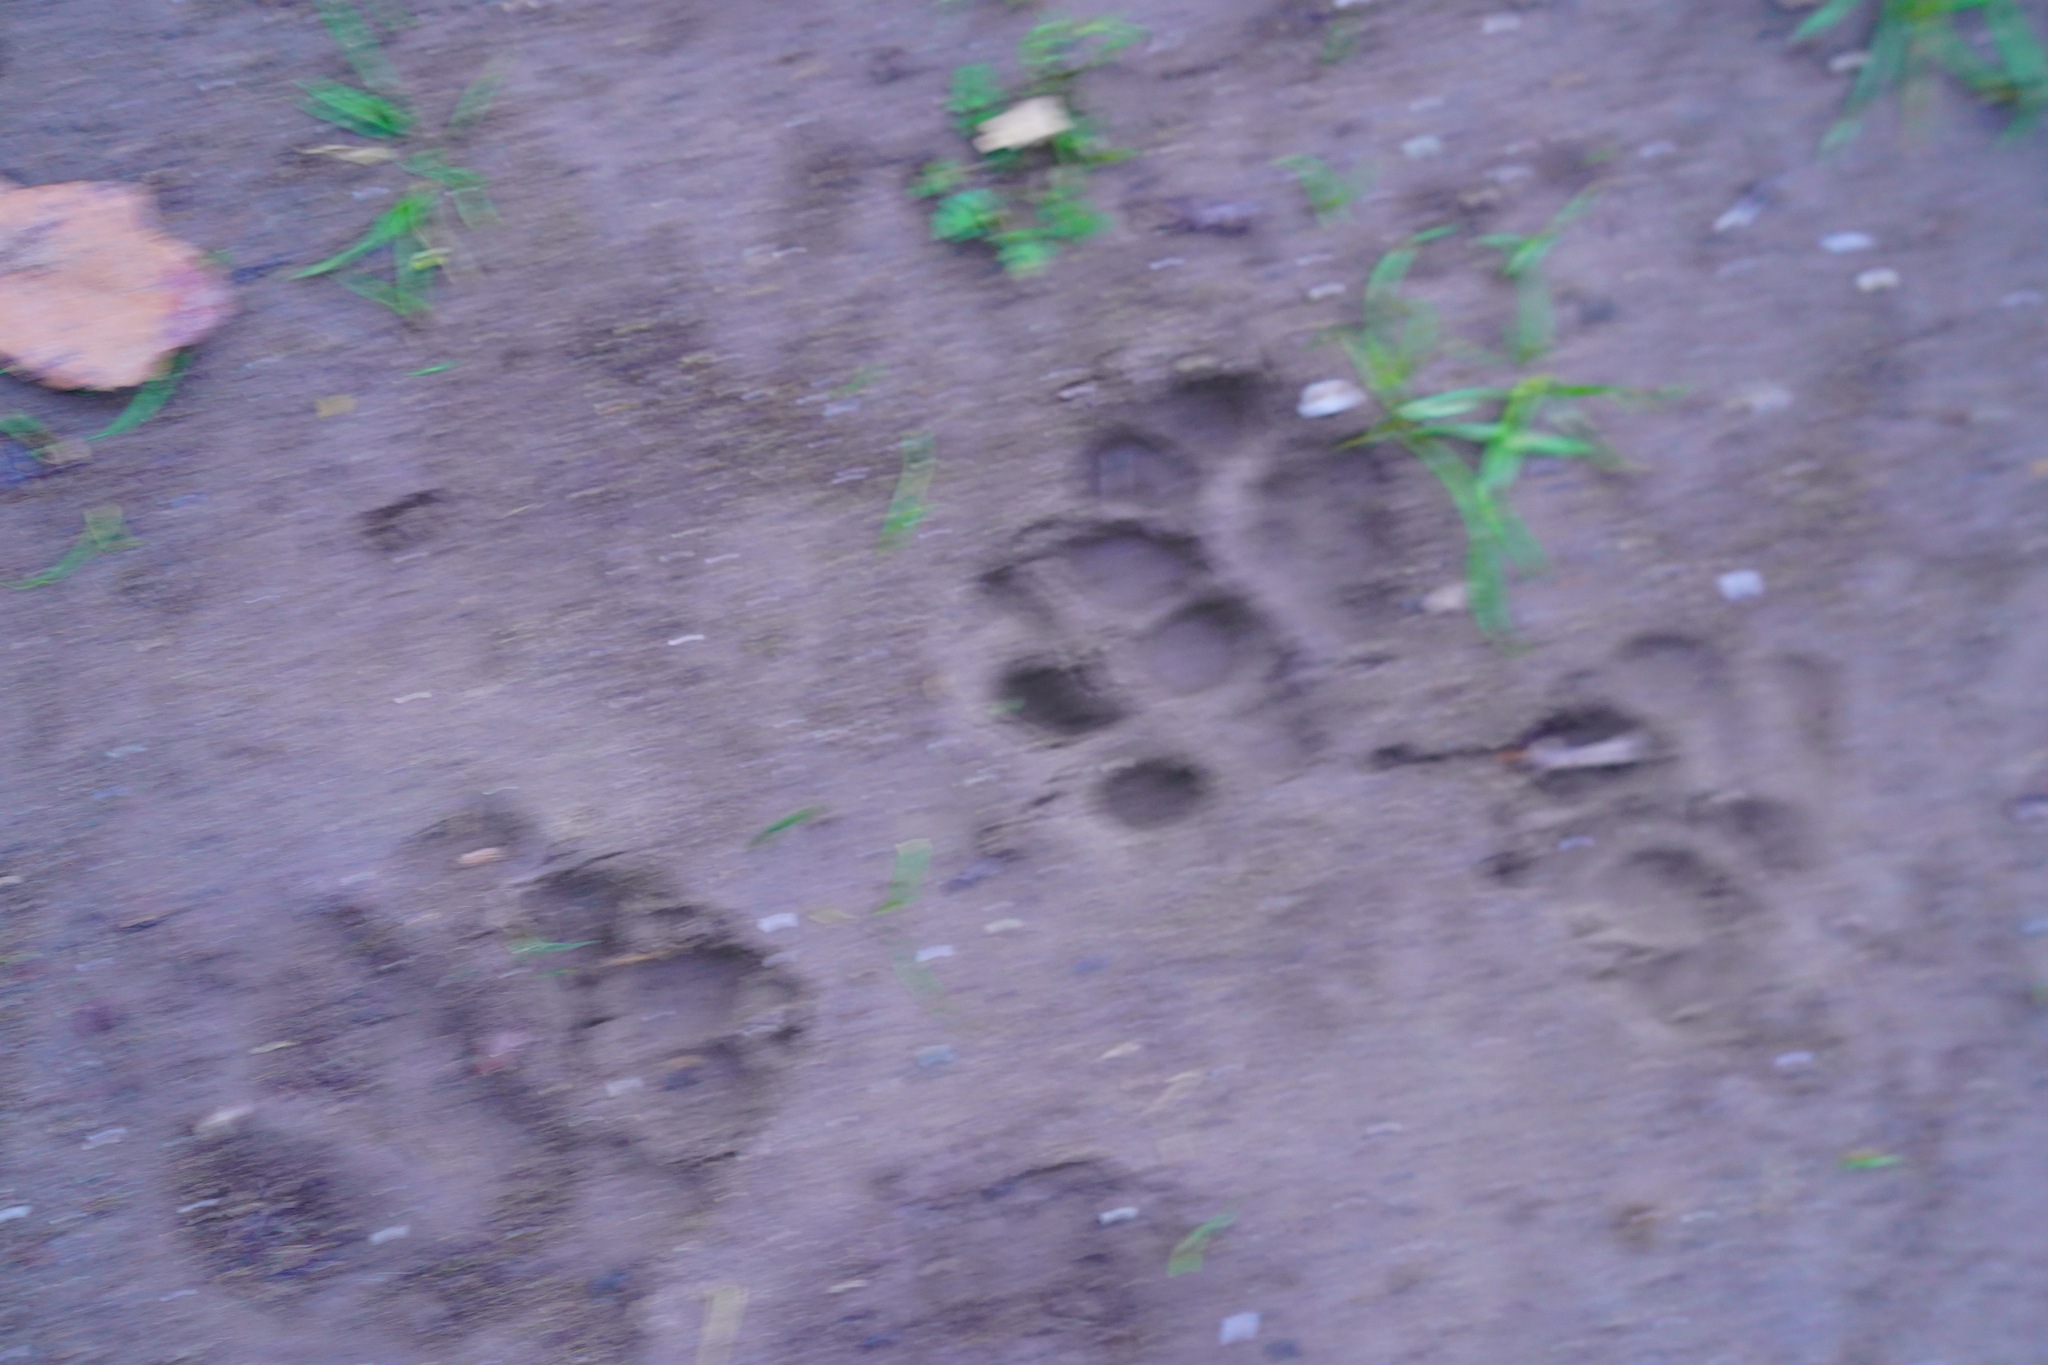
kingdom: Animalia
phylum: Chordata
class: Mammalia
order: Carnivora
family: Felidae
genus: Lynx
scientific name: Lynx rufus
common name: Bobcat
